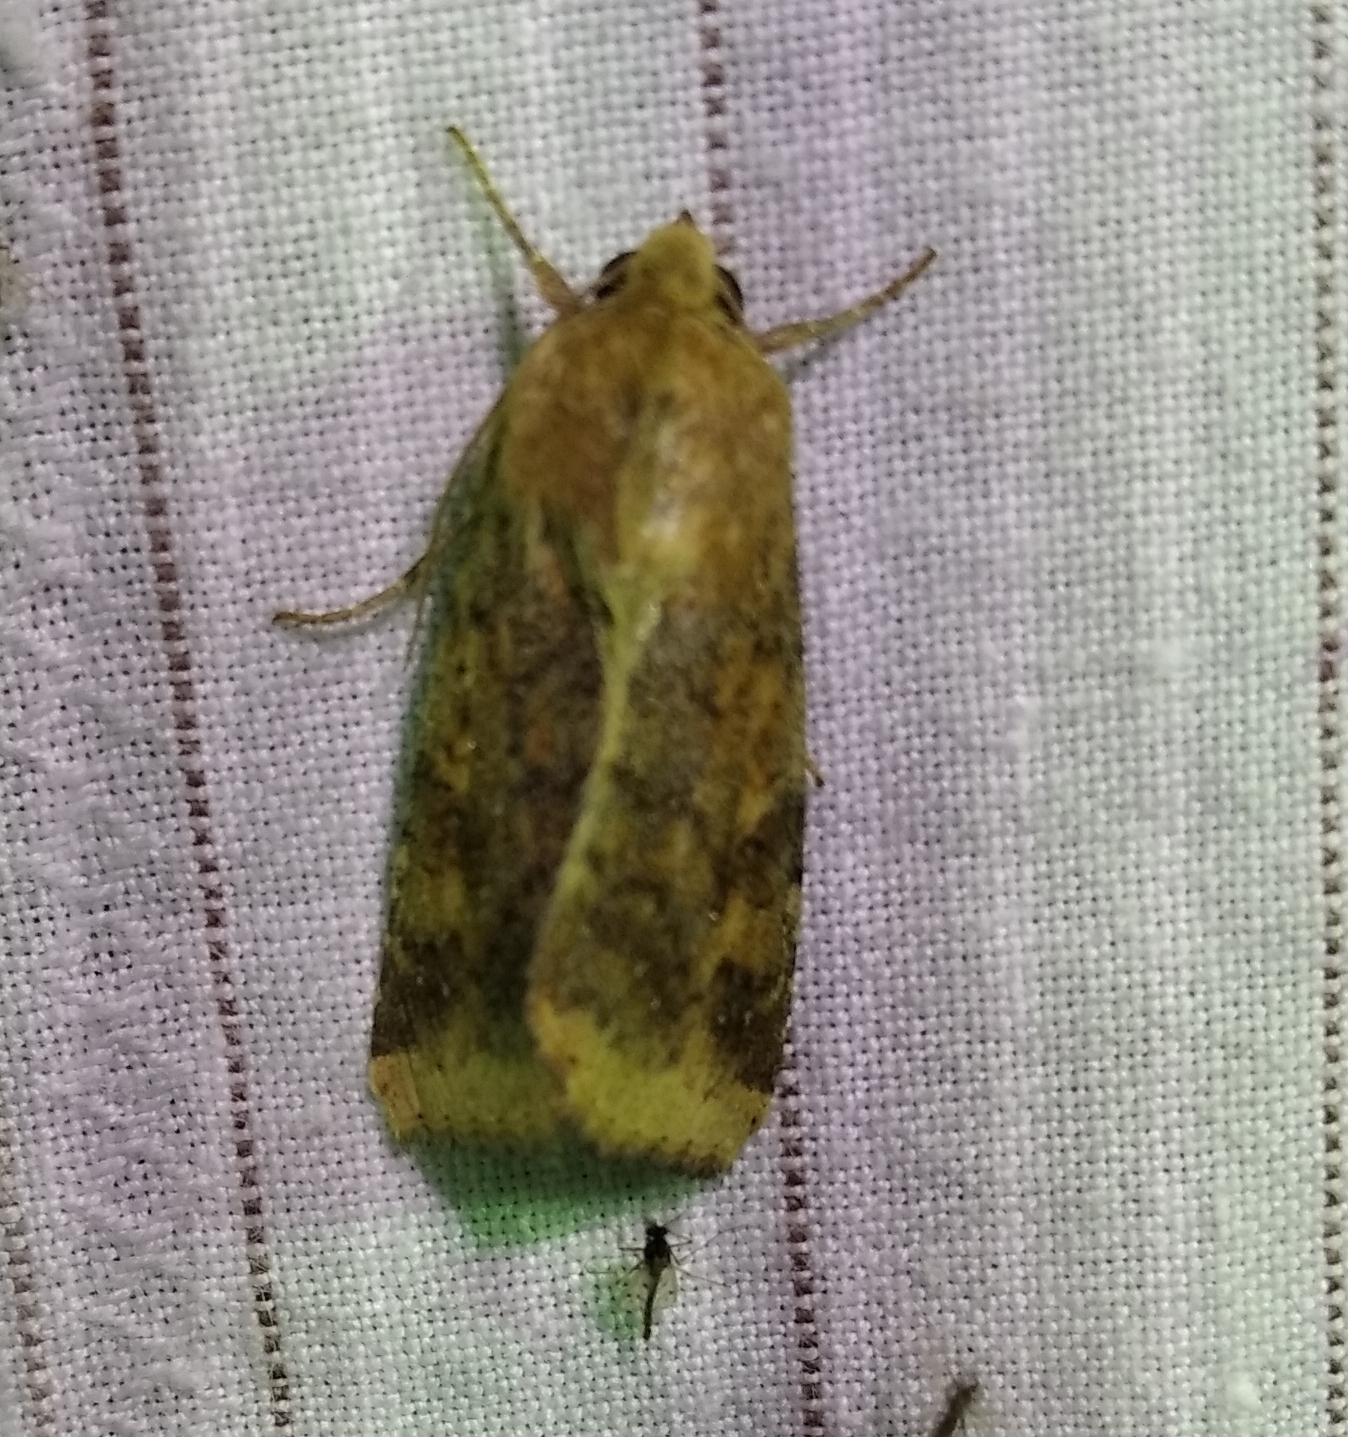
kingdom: Animalia
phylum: Arthropoda
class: Insecta
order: Lepidoptera
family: Noctuidae
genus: Helicoverpa
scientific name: Helicoverpa armigera
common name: Cotton bollworm
